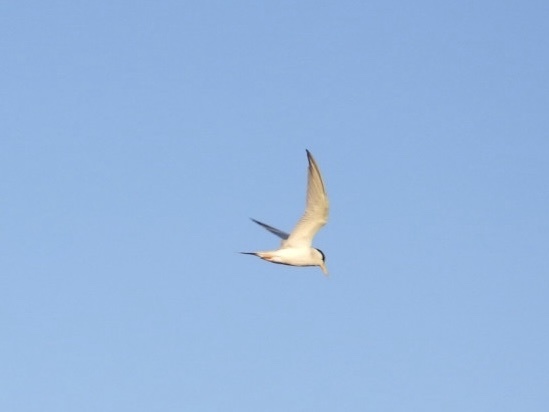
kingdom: Animalia
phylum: Chordata
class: Aves
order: Charadriiformes
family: Laridae
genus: Sternula
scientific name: Sternula antillarum
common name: Least tern
